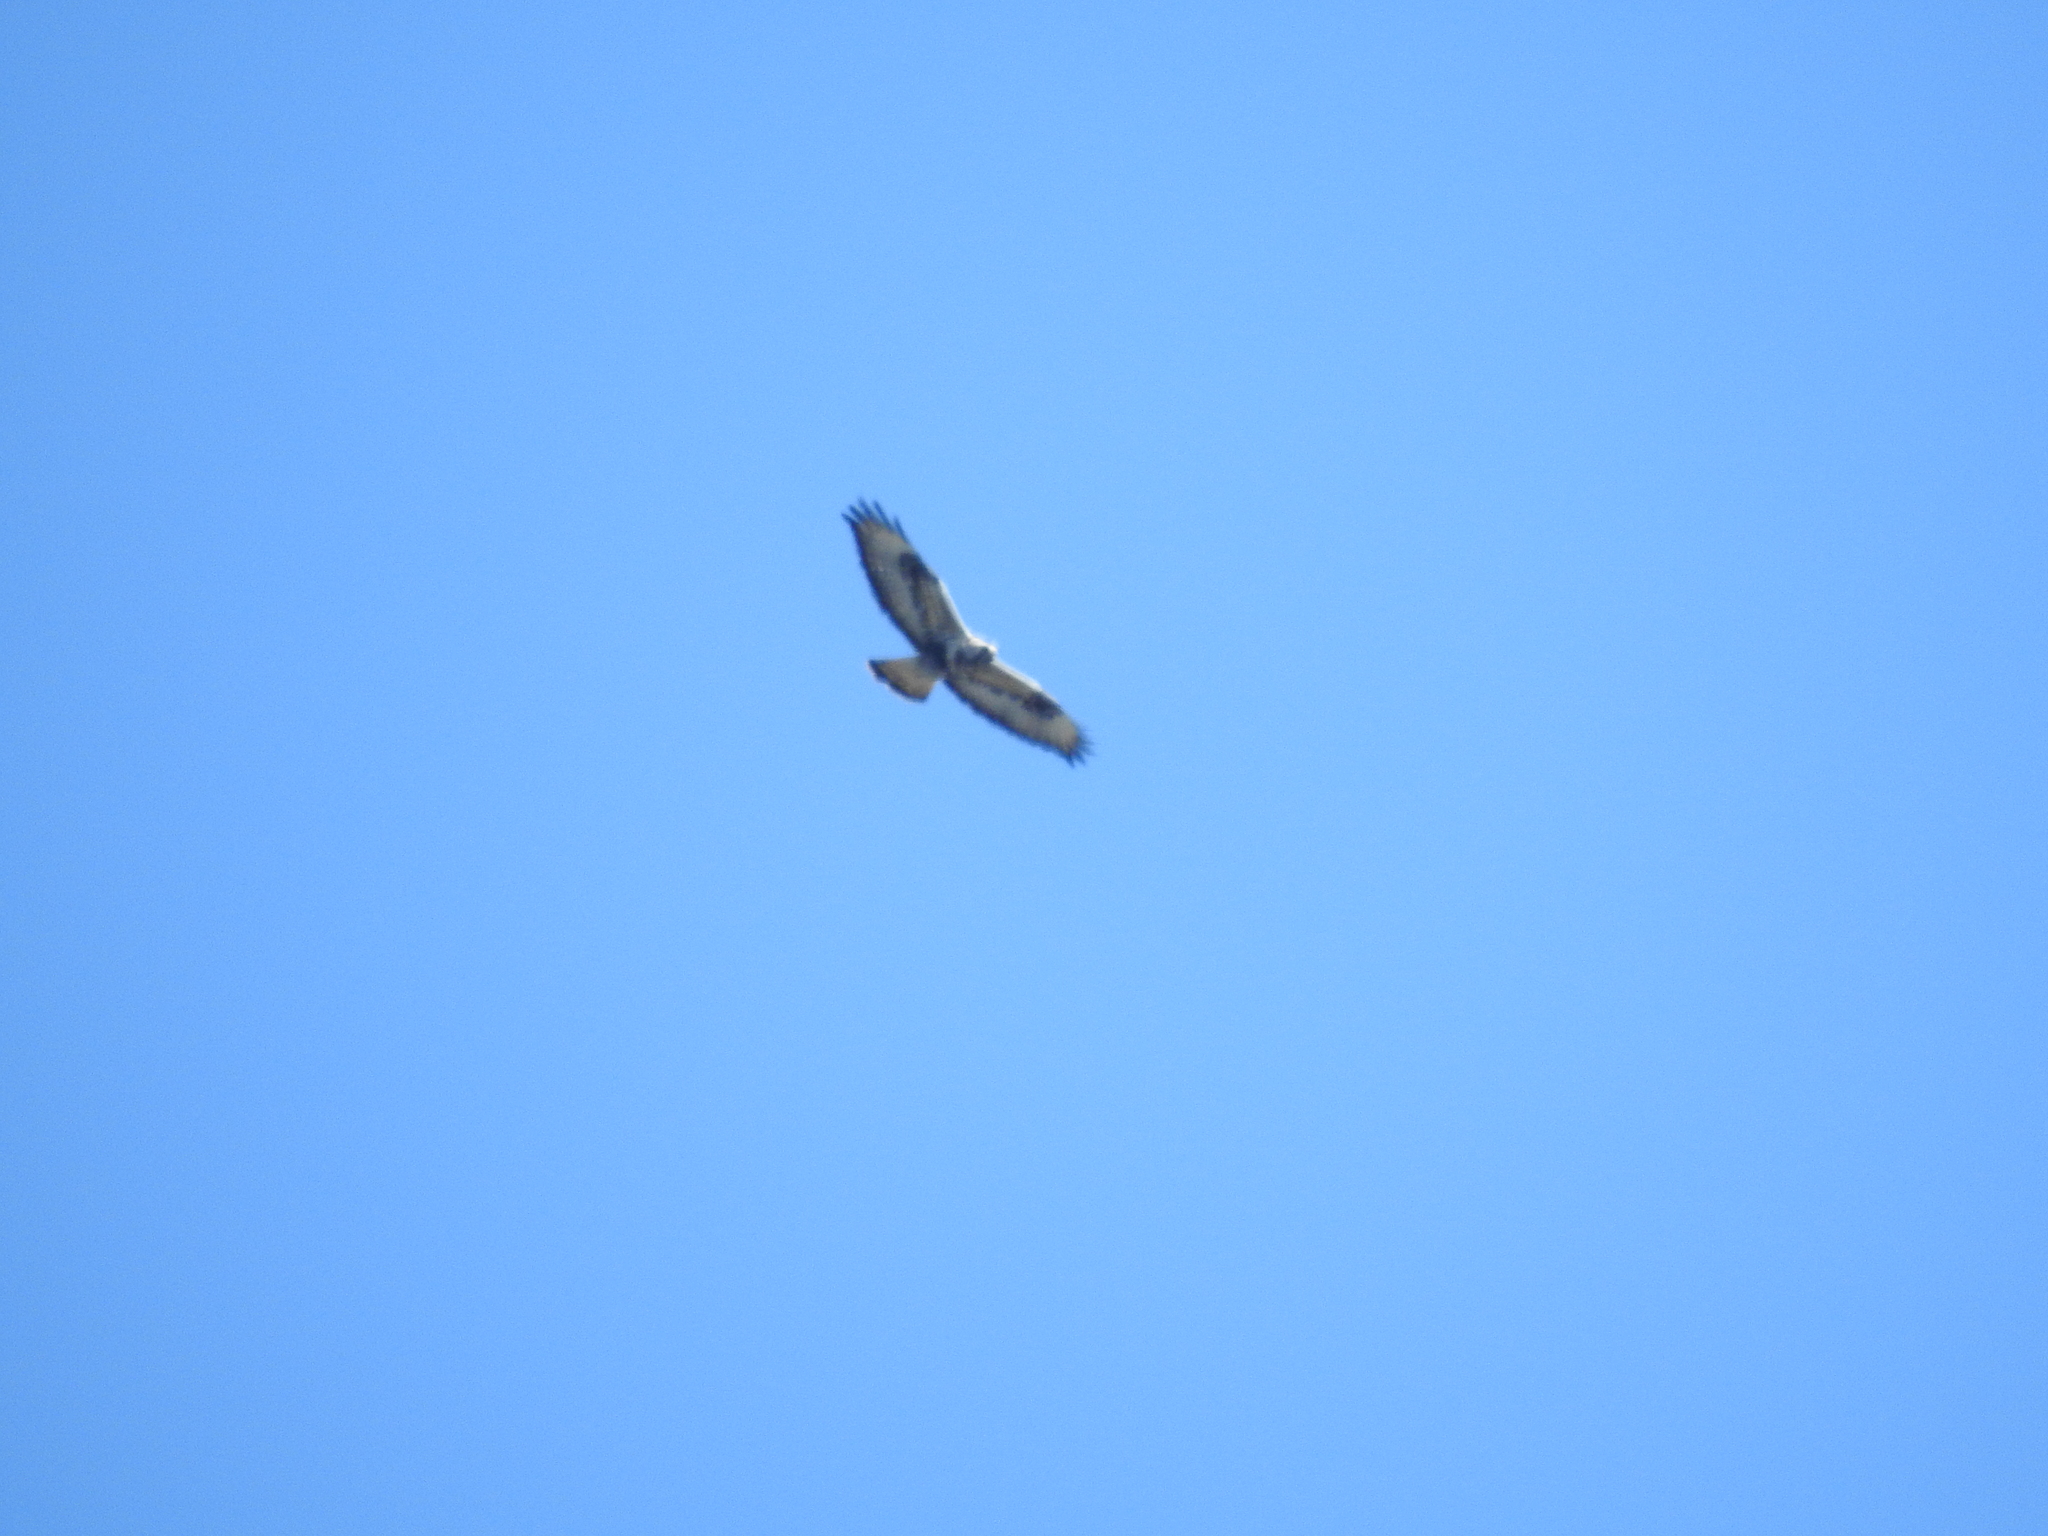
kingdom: Animalia
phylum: Chordata
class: Aves
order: Accipitriformes
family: Accipitridae
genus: Buteo
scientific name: Buteo lagopus
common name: Rough-legged buzzard
